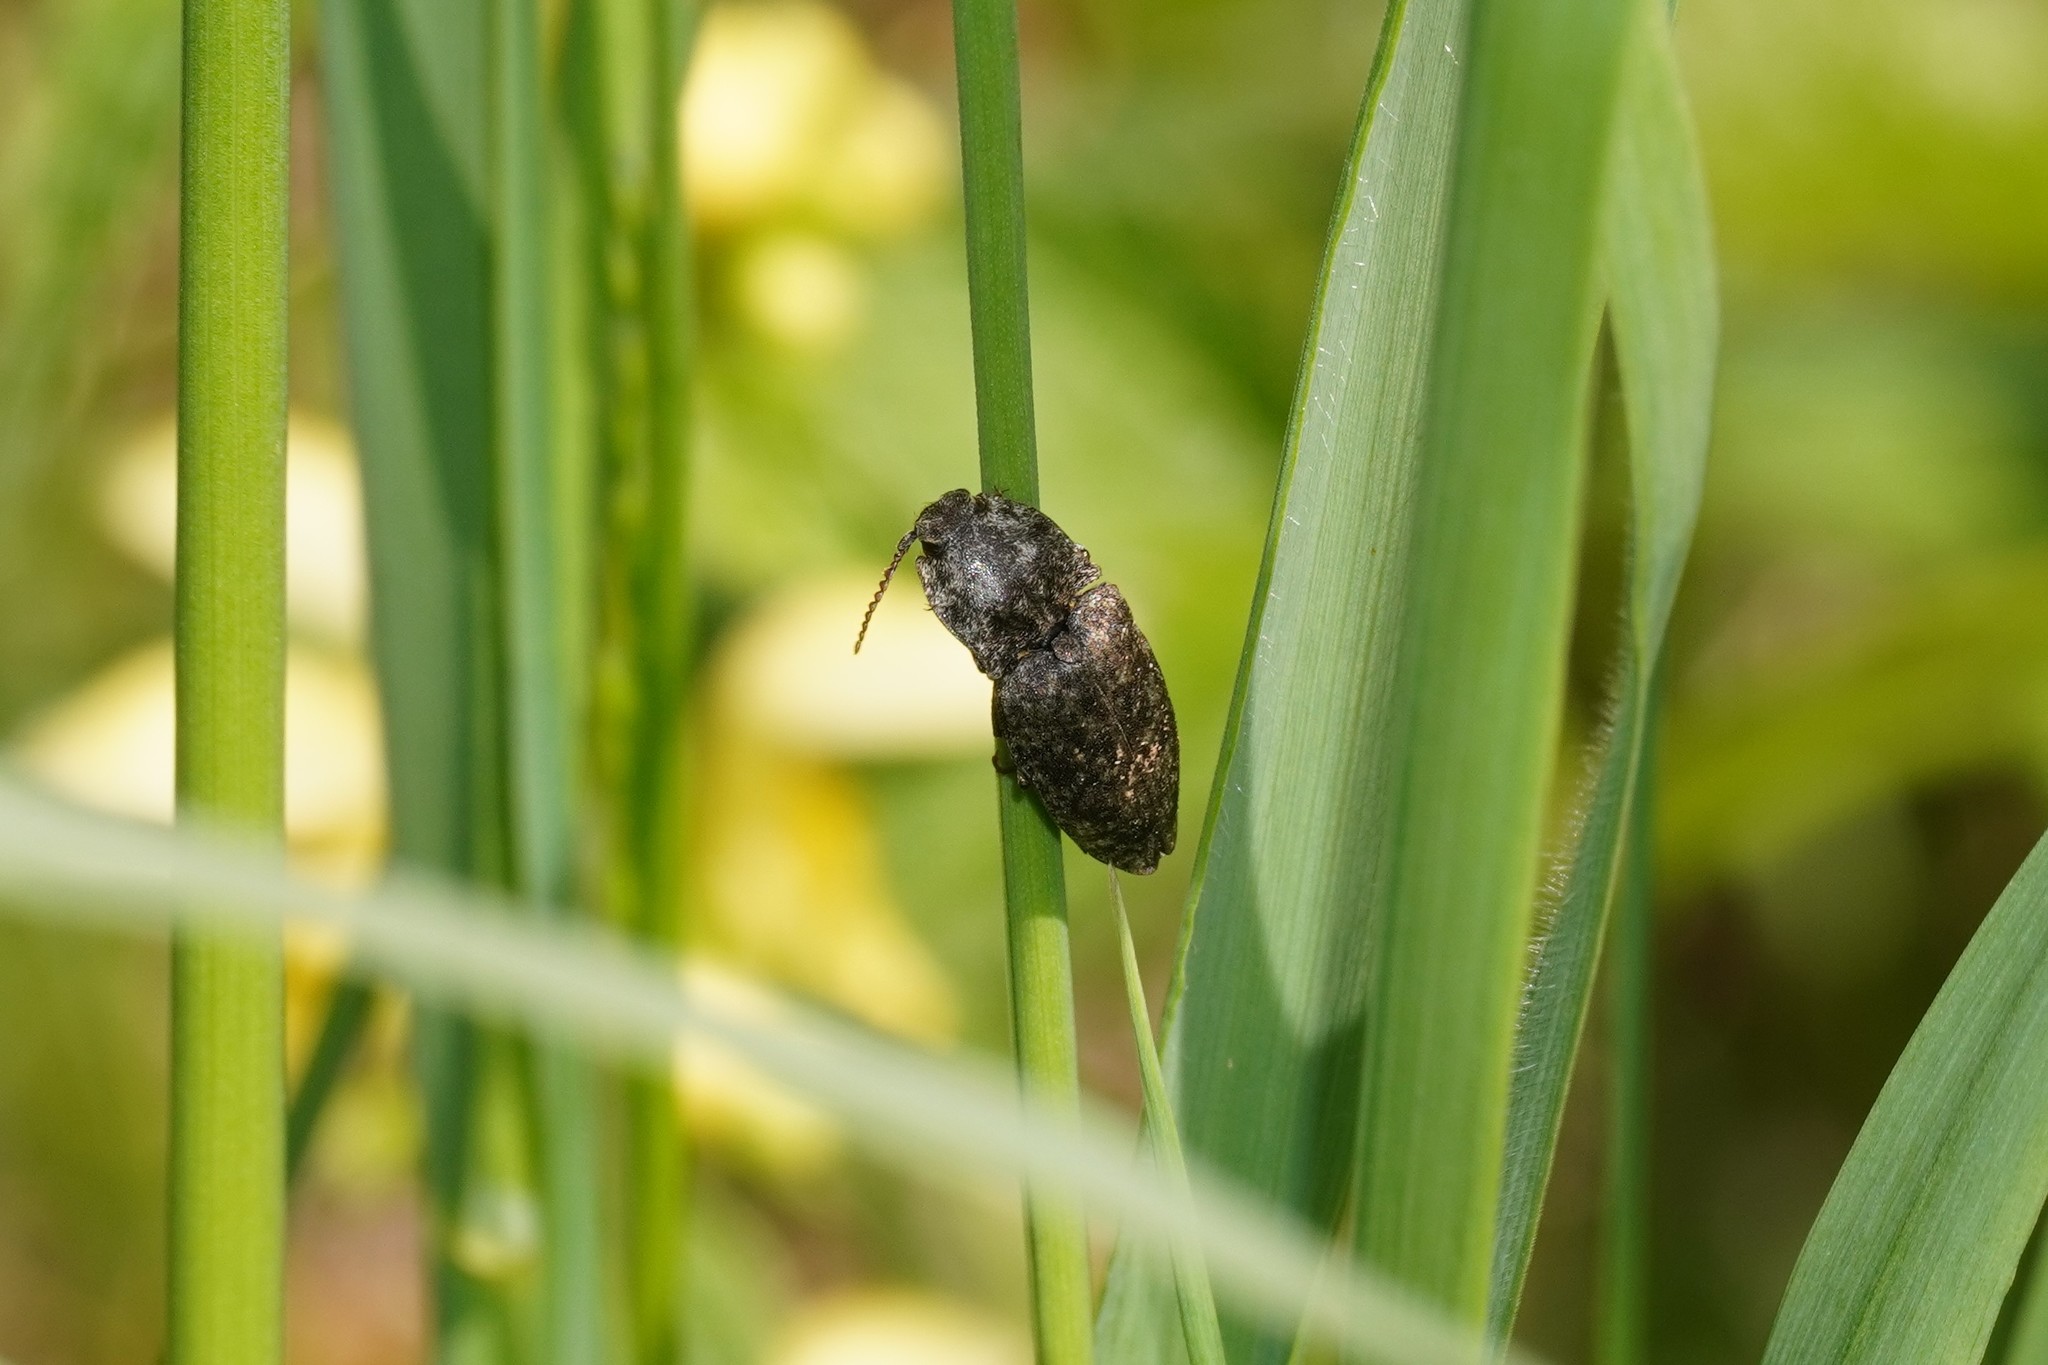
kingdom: Animalia
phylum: Arthropoda
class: Insecta
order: Coleoptera
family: Elateridae
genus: Agrypnus
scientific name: Agrypnus murinus
